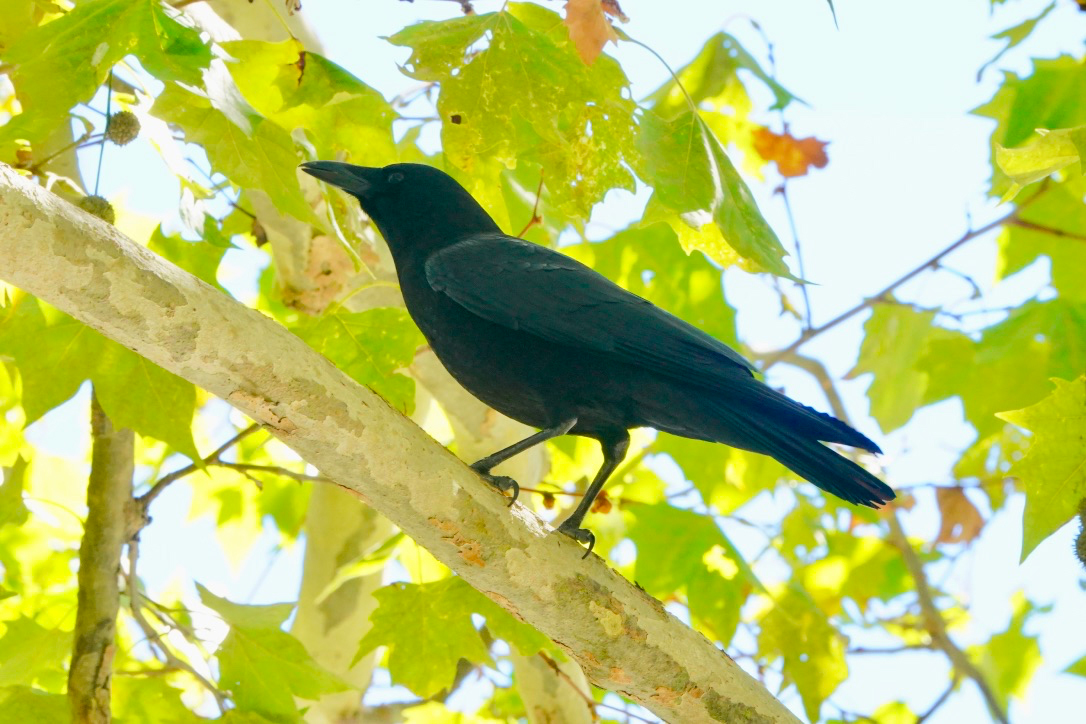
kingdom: Animalia
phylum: Chordata
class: Aves
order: Passeriformes
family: Corvidae
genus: Corvus
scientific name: Corvus brachyrhynchos
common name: American crow
